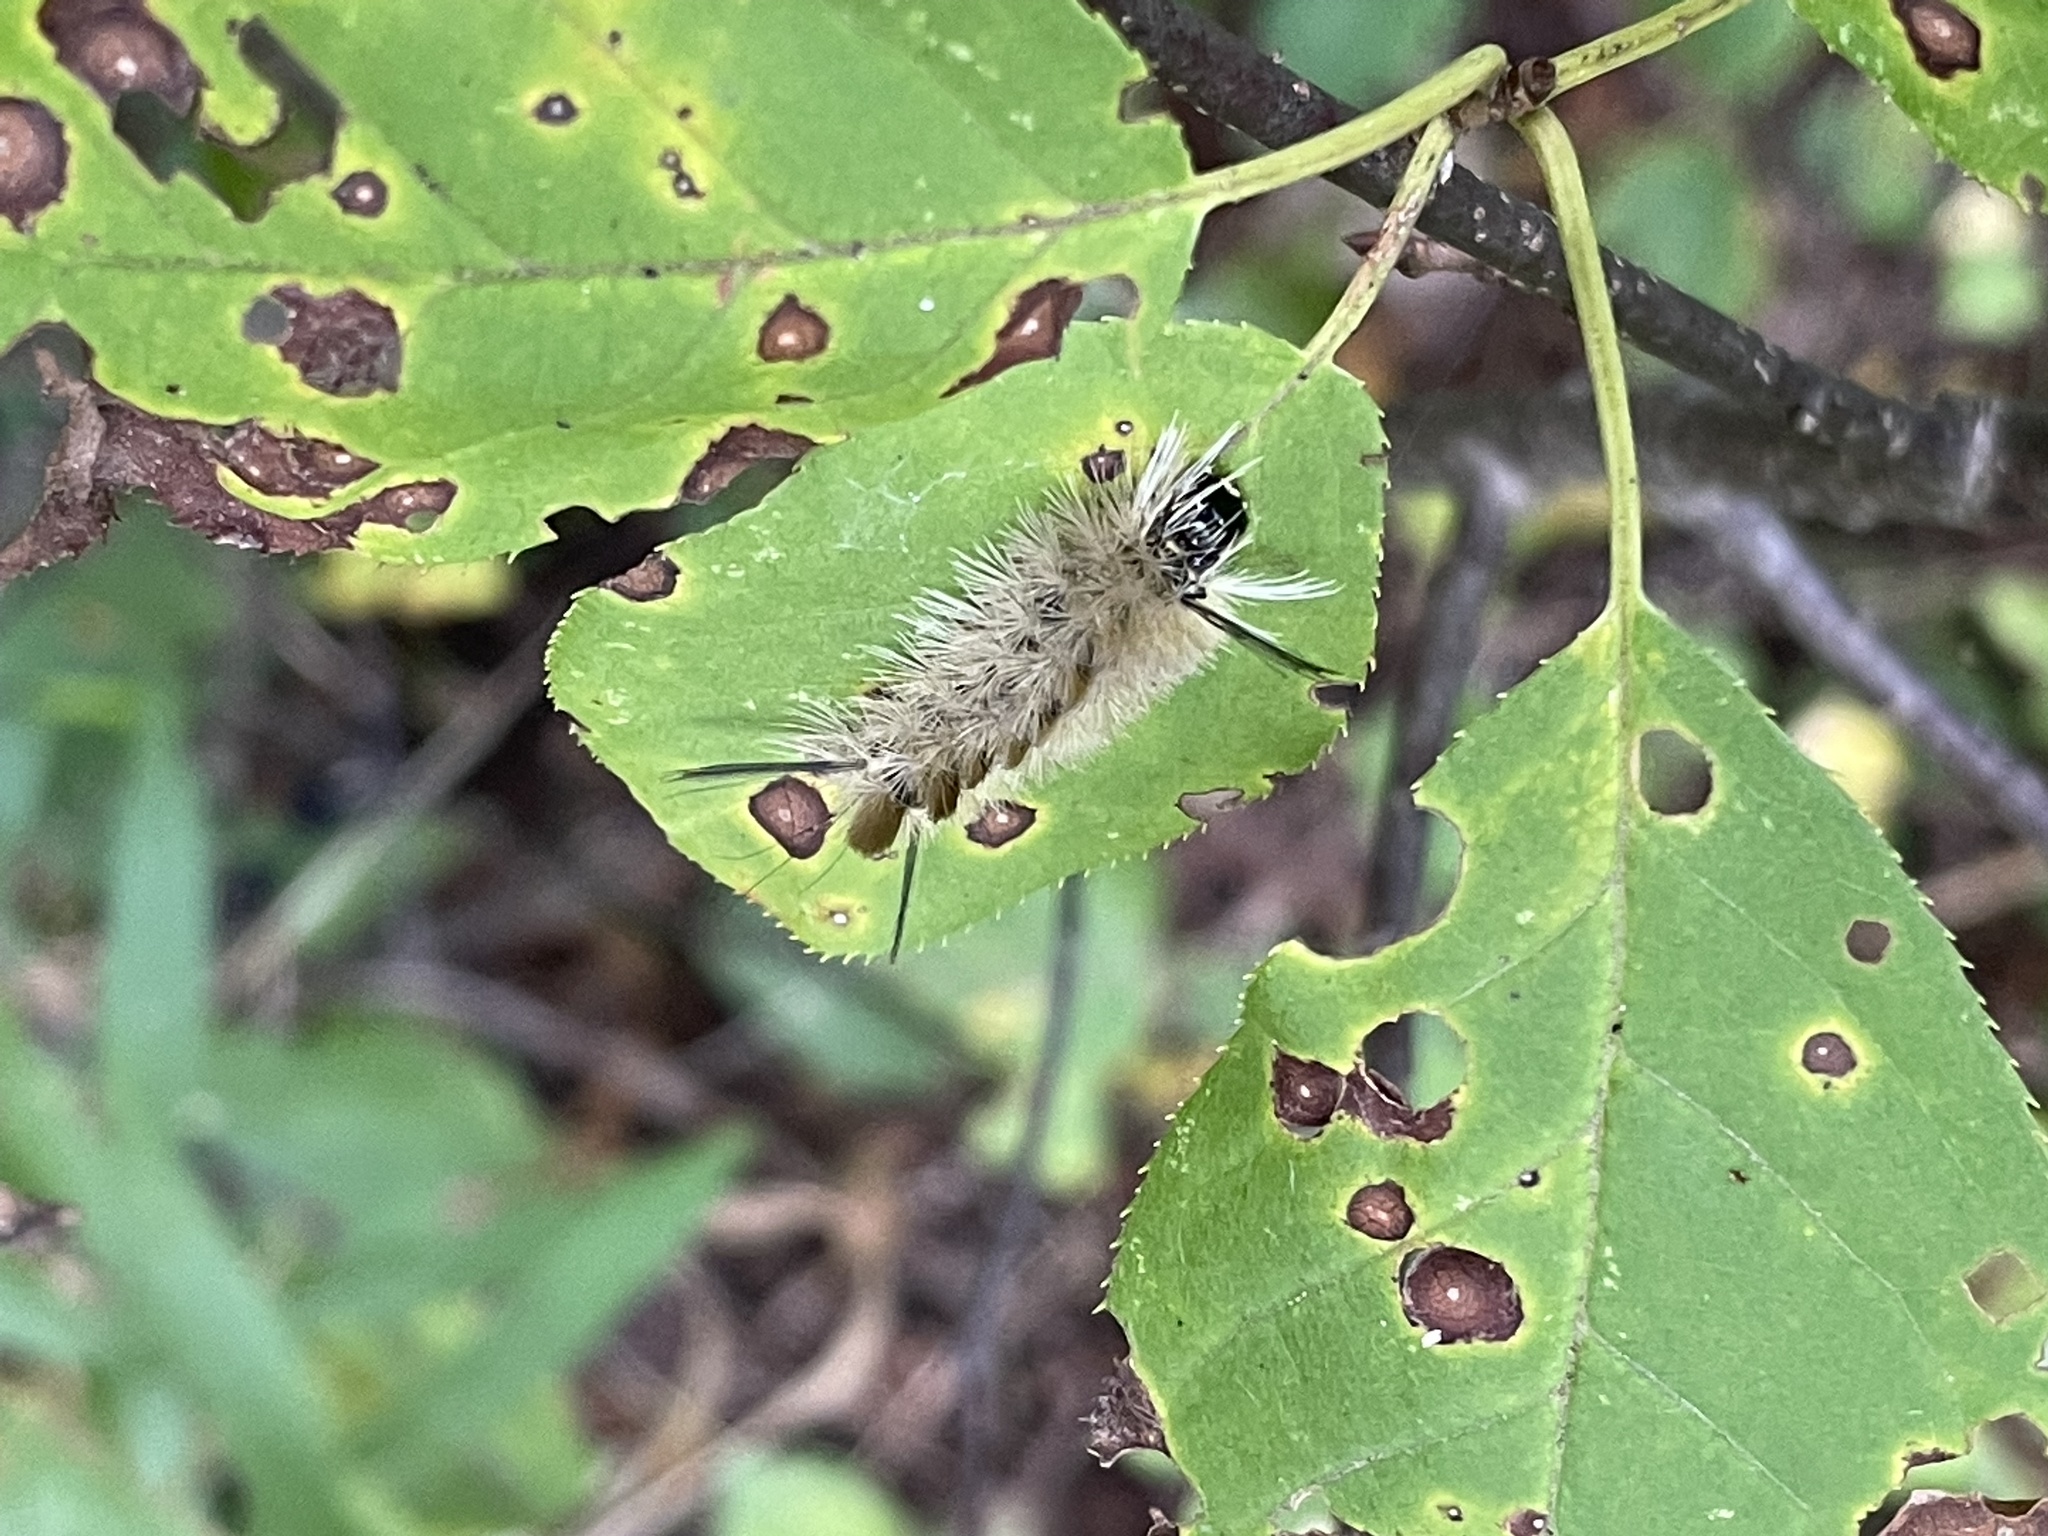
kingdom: Animalia
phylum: Arthropoda
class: Insecta
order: Lepidoptera
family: Erebidae
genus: Halysidota
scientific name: Halysidota tessellaris
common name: Banded tussock moth
